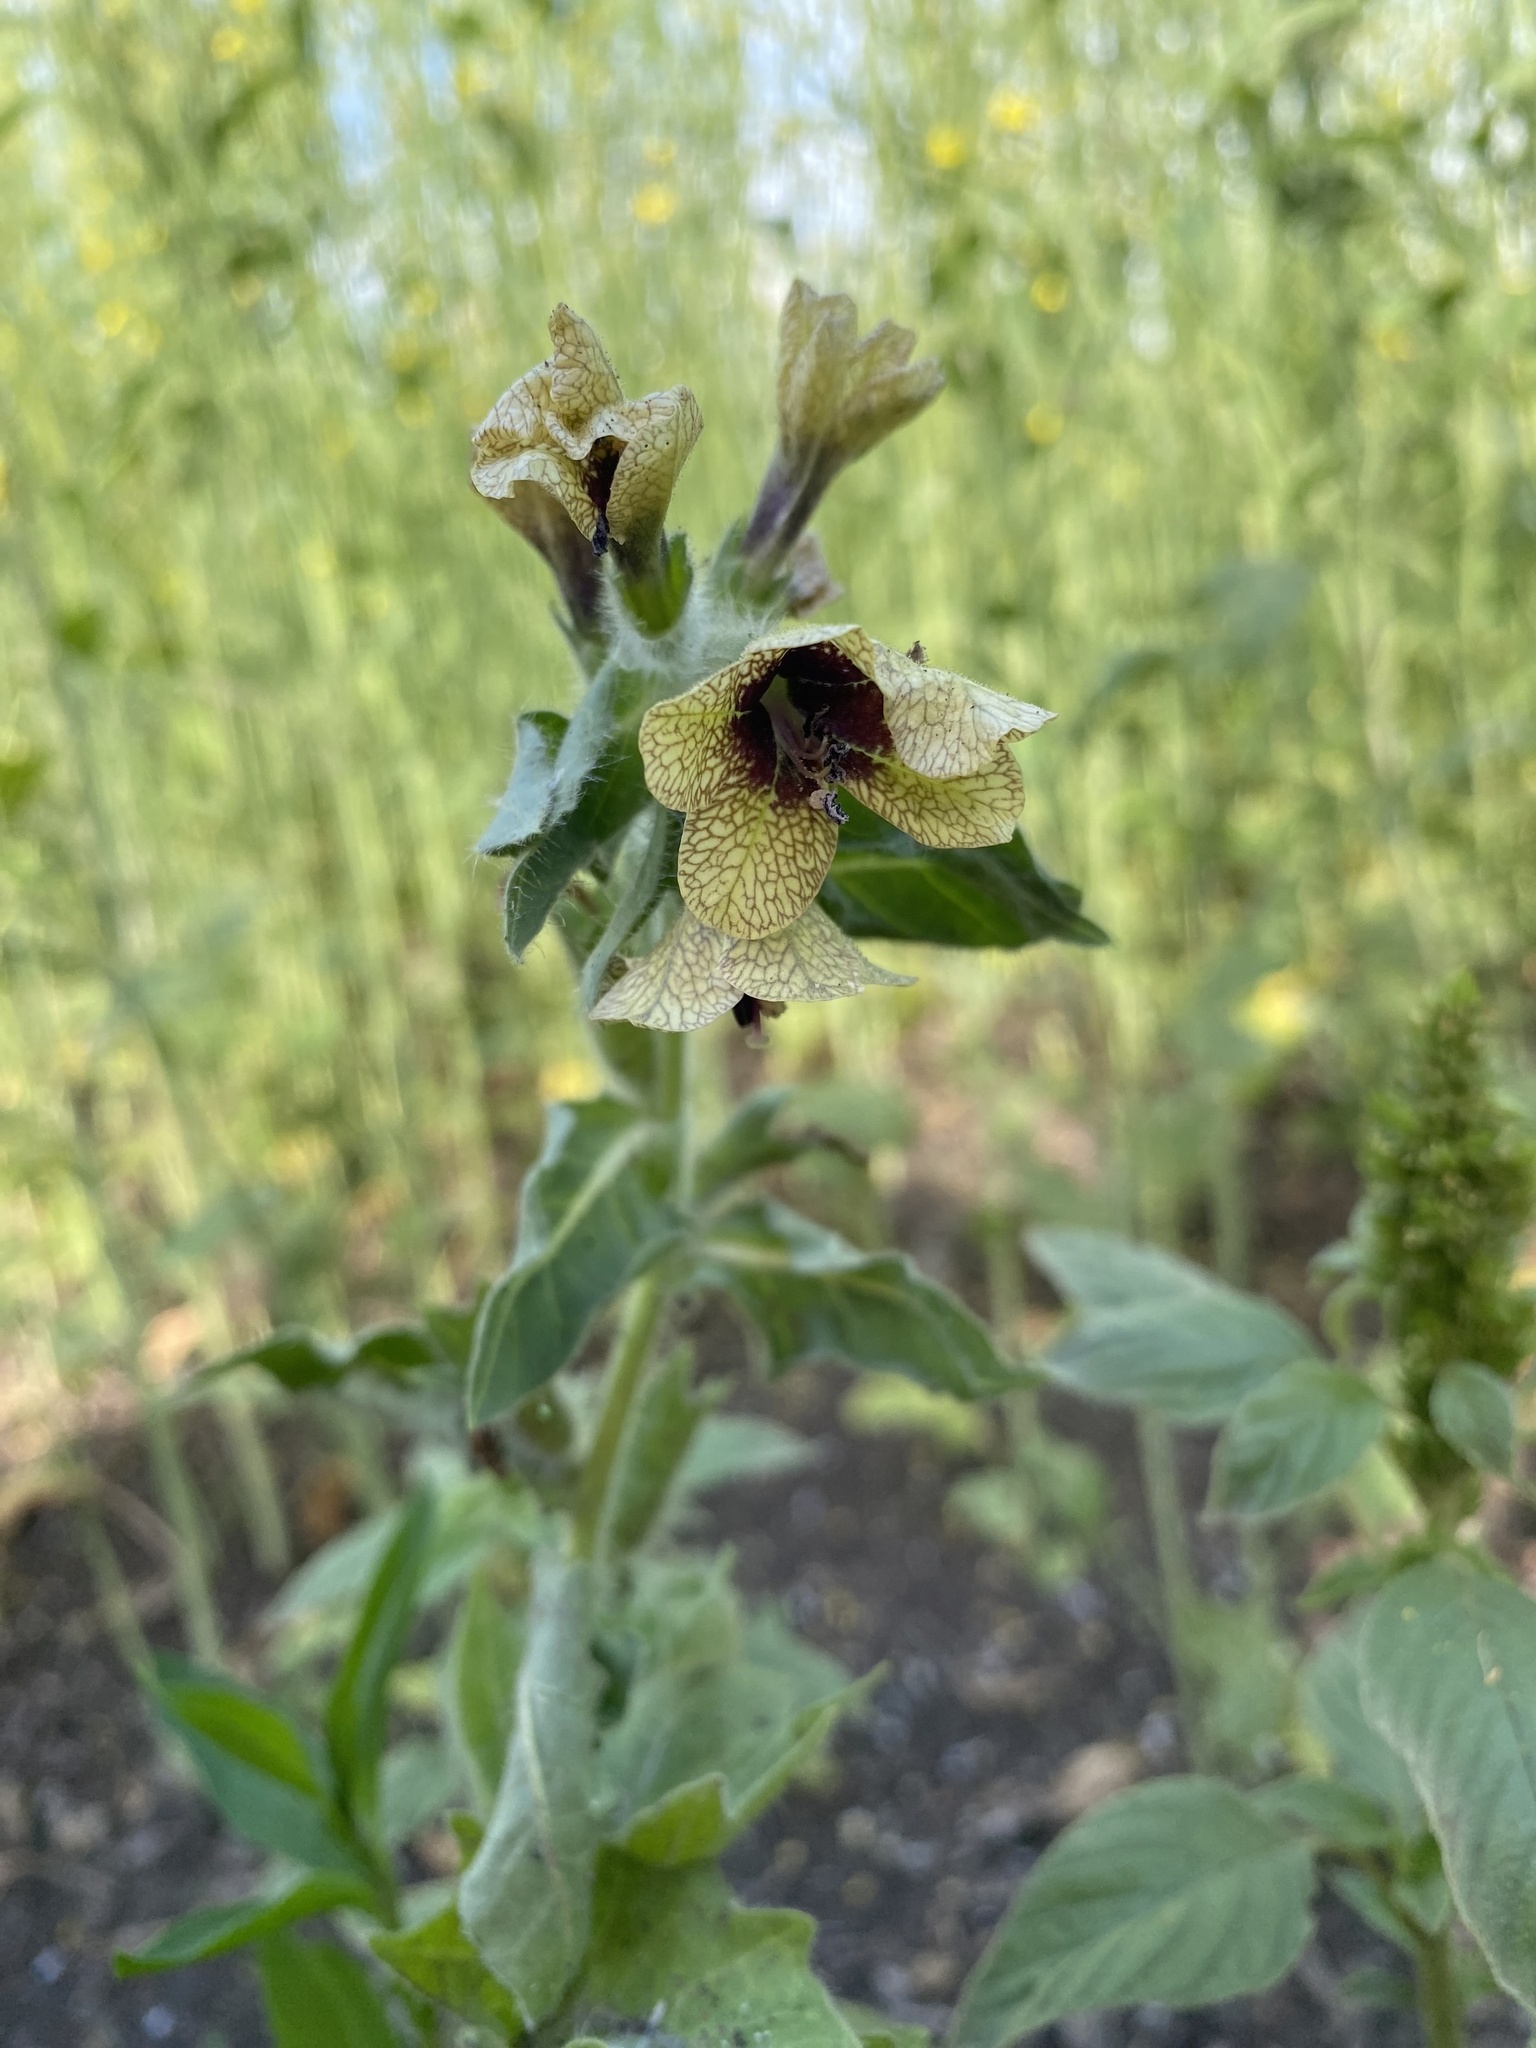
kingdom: Plantae
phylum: Tracheophyta
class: Magnoliopsida
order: Solanales
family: Solanaceae
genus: Hyoscyamus
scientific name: Hyoscyamus niger
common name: Henbane
